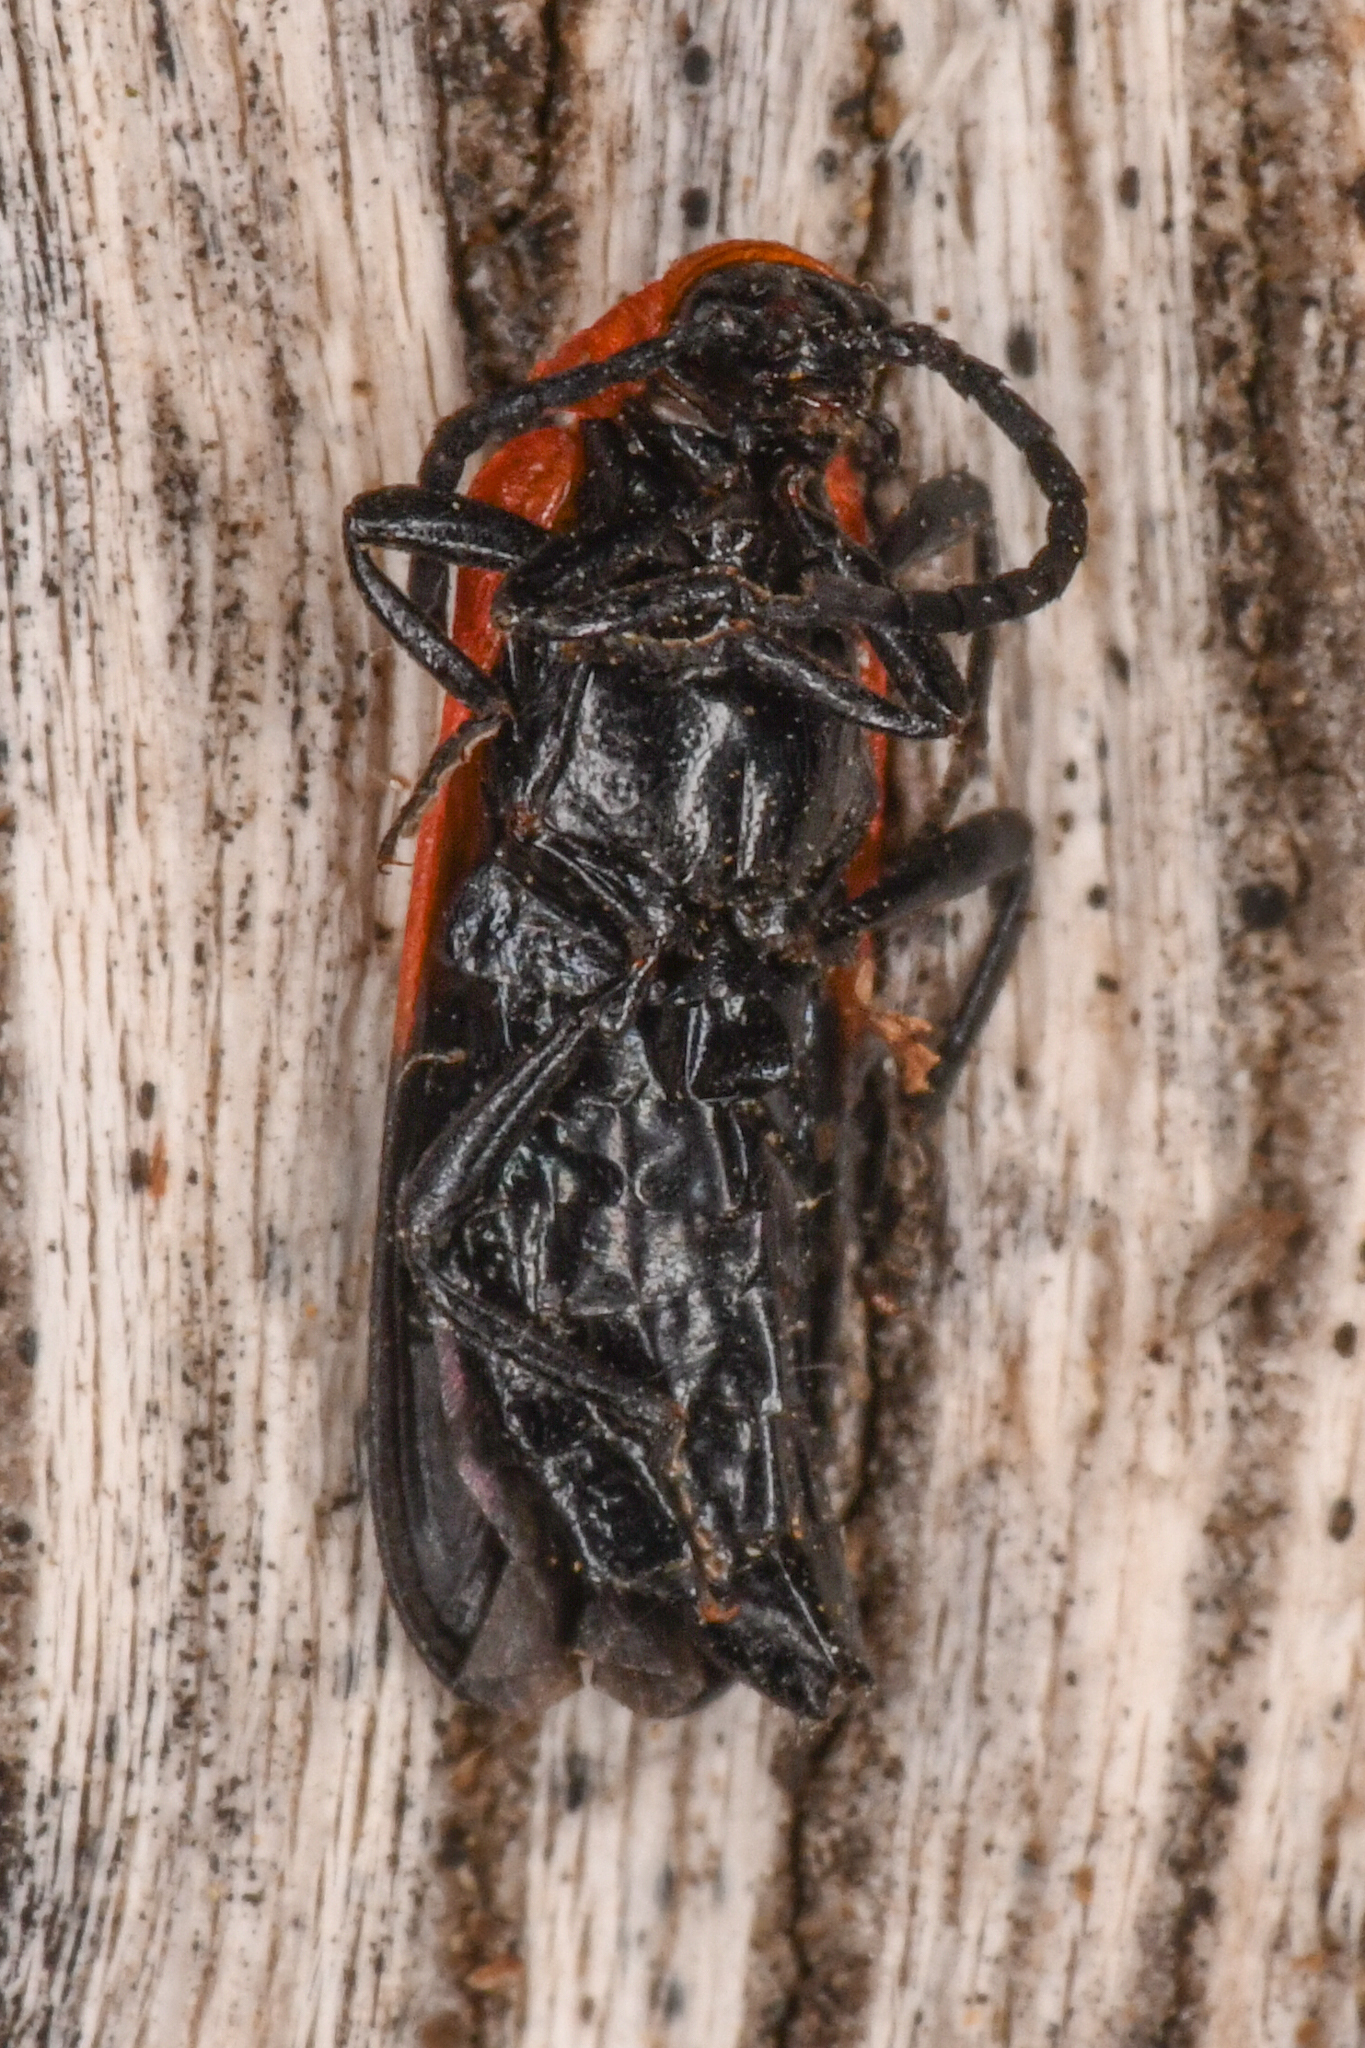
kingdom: Animalia
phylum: Arthropoda
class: Insecta
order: Coleoptera
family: Lycidae
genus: Calochromus
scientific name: Calochromus slevini
